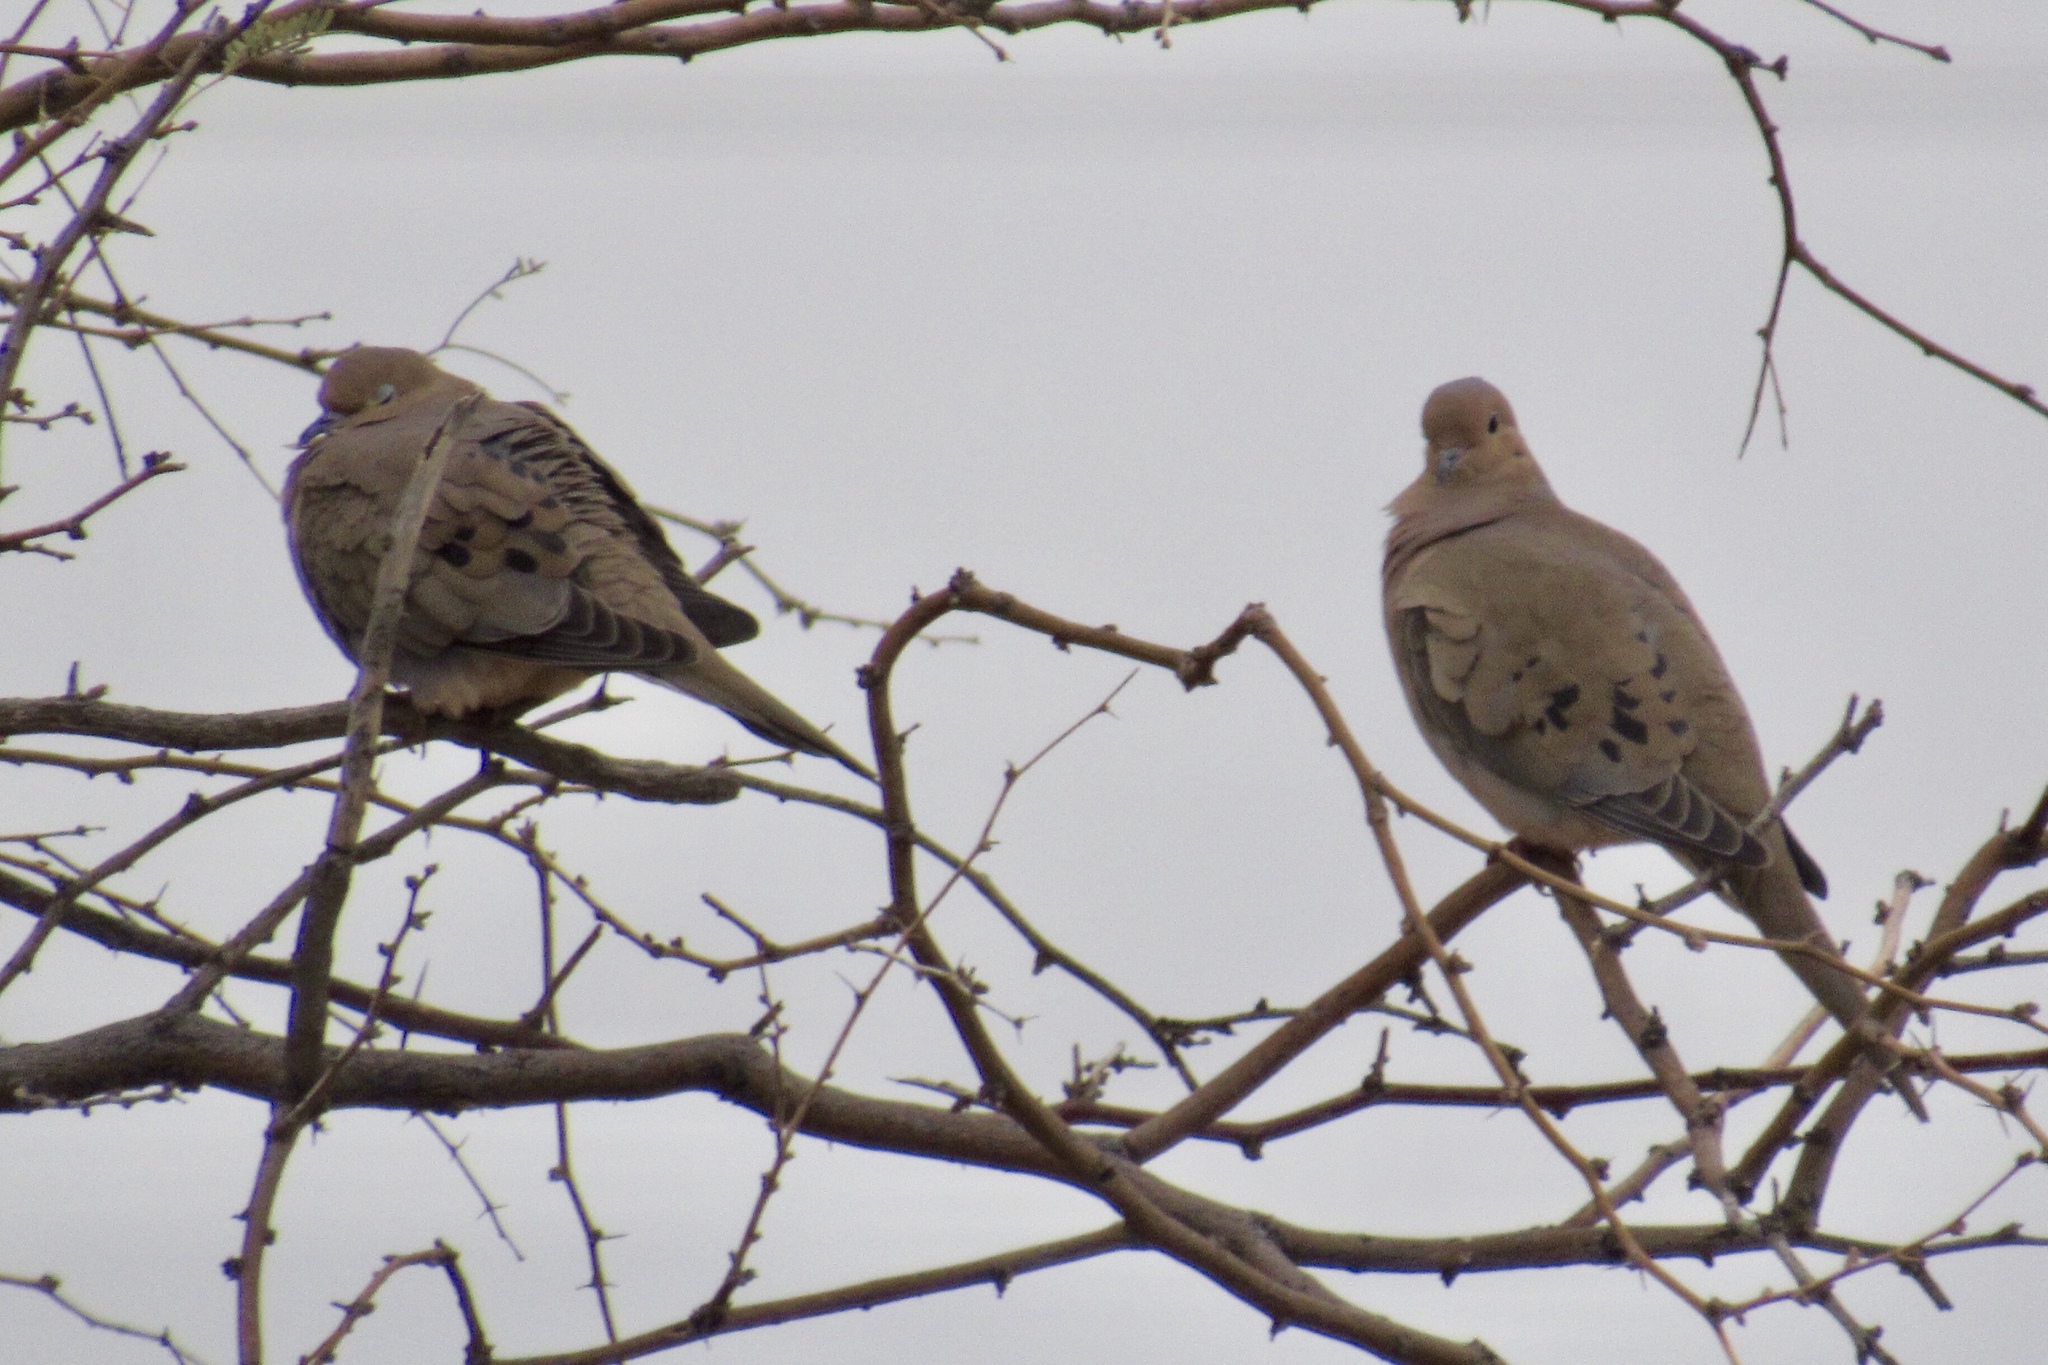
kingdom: Animalia
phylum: Chordata
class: Aves
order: Columbiformes
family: Columbidae
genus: Zenaida
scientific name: Zenaida macroura
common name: Mourning dove
